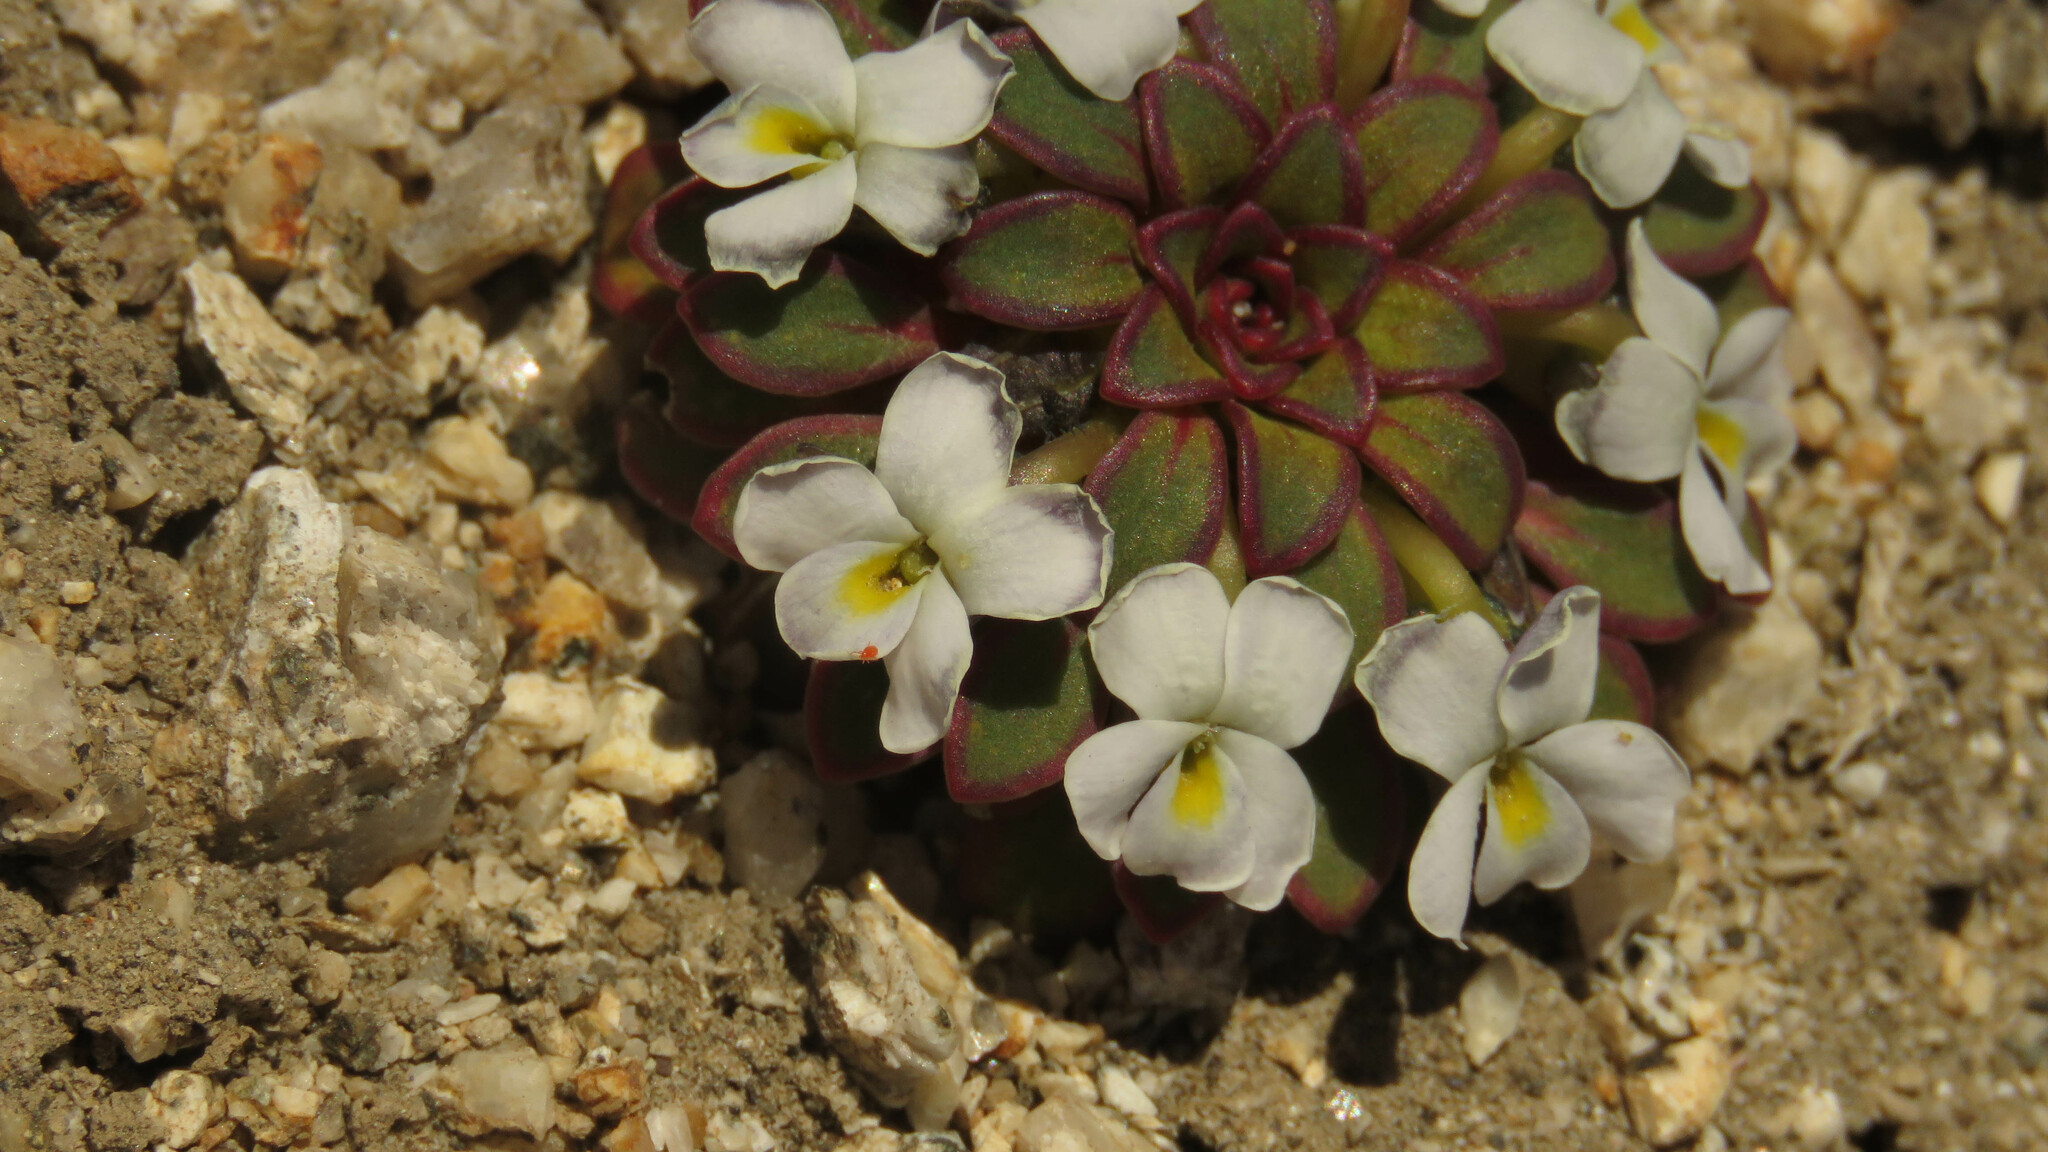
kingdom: Plantae
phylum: Tracheophyta
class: Magnoliopsida
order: Malpighiales
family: Violaceae
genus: Viola
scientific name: Viola sacculus
